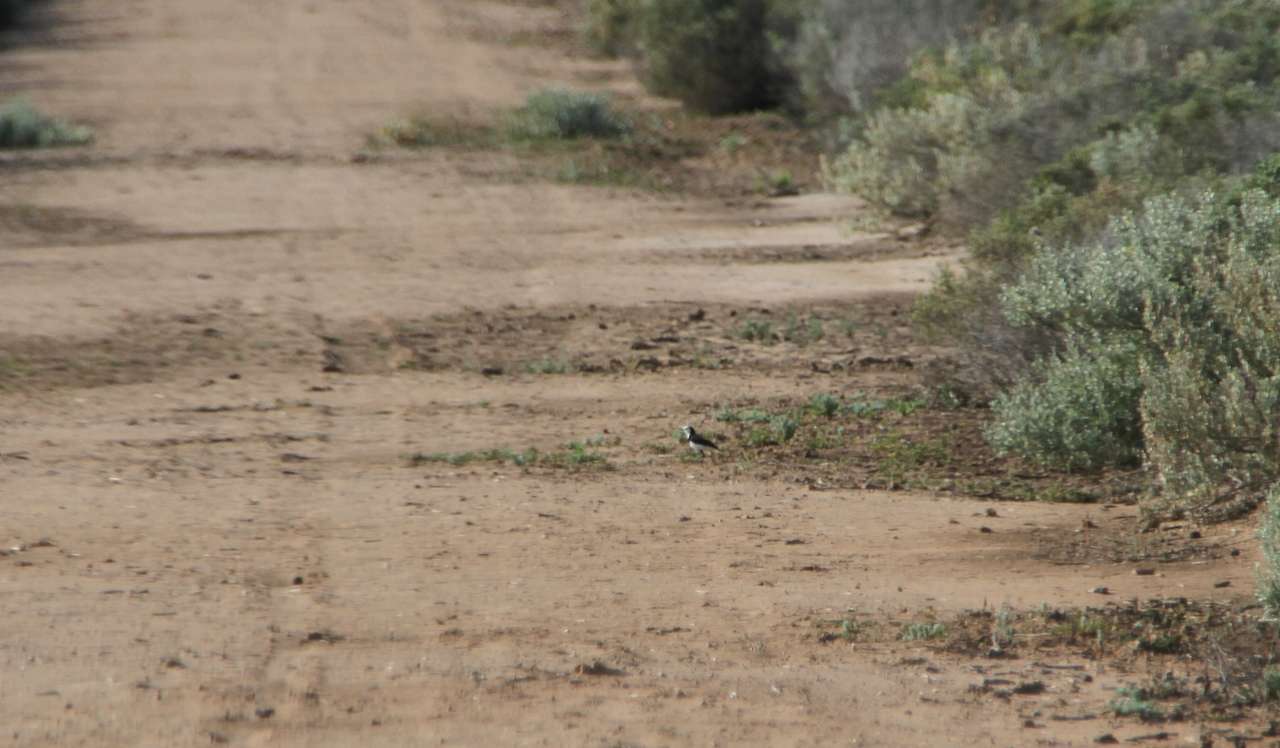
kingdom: Animalia
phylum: Chordata
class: Aves
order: Passeriformes
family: Meliphagidae
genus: Epthianura
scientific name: Epthianura albifrons
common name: White-fronted chat
